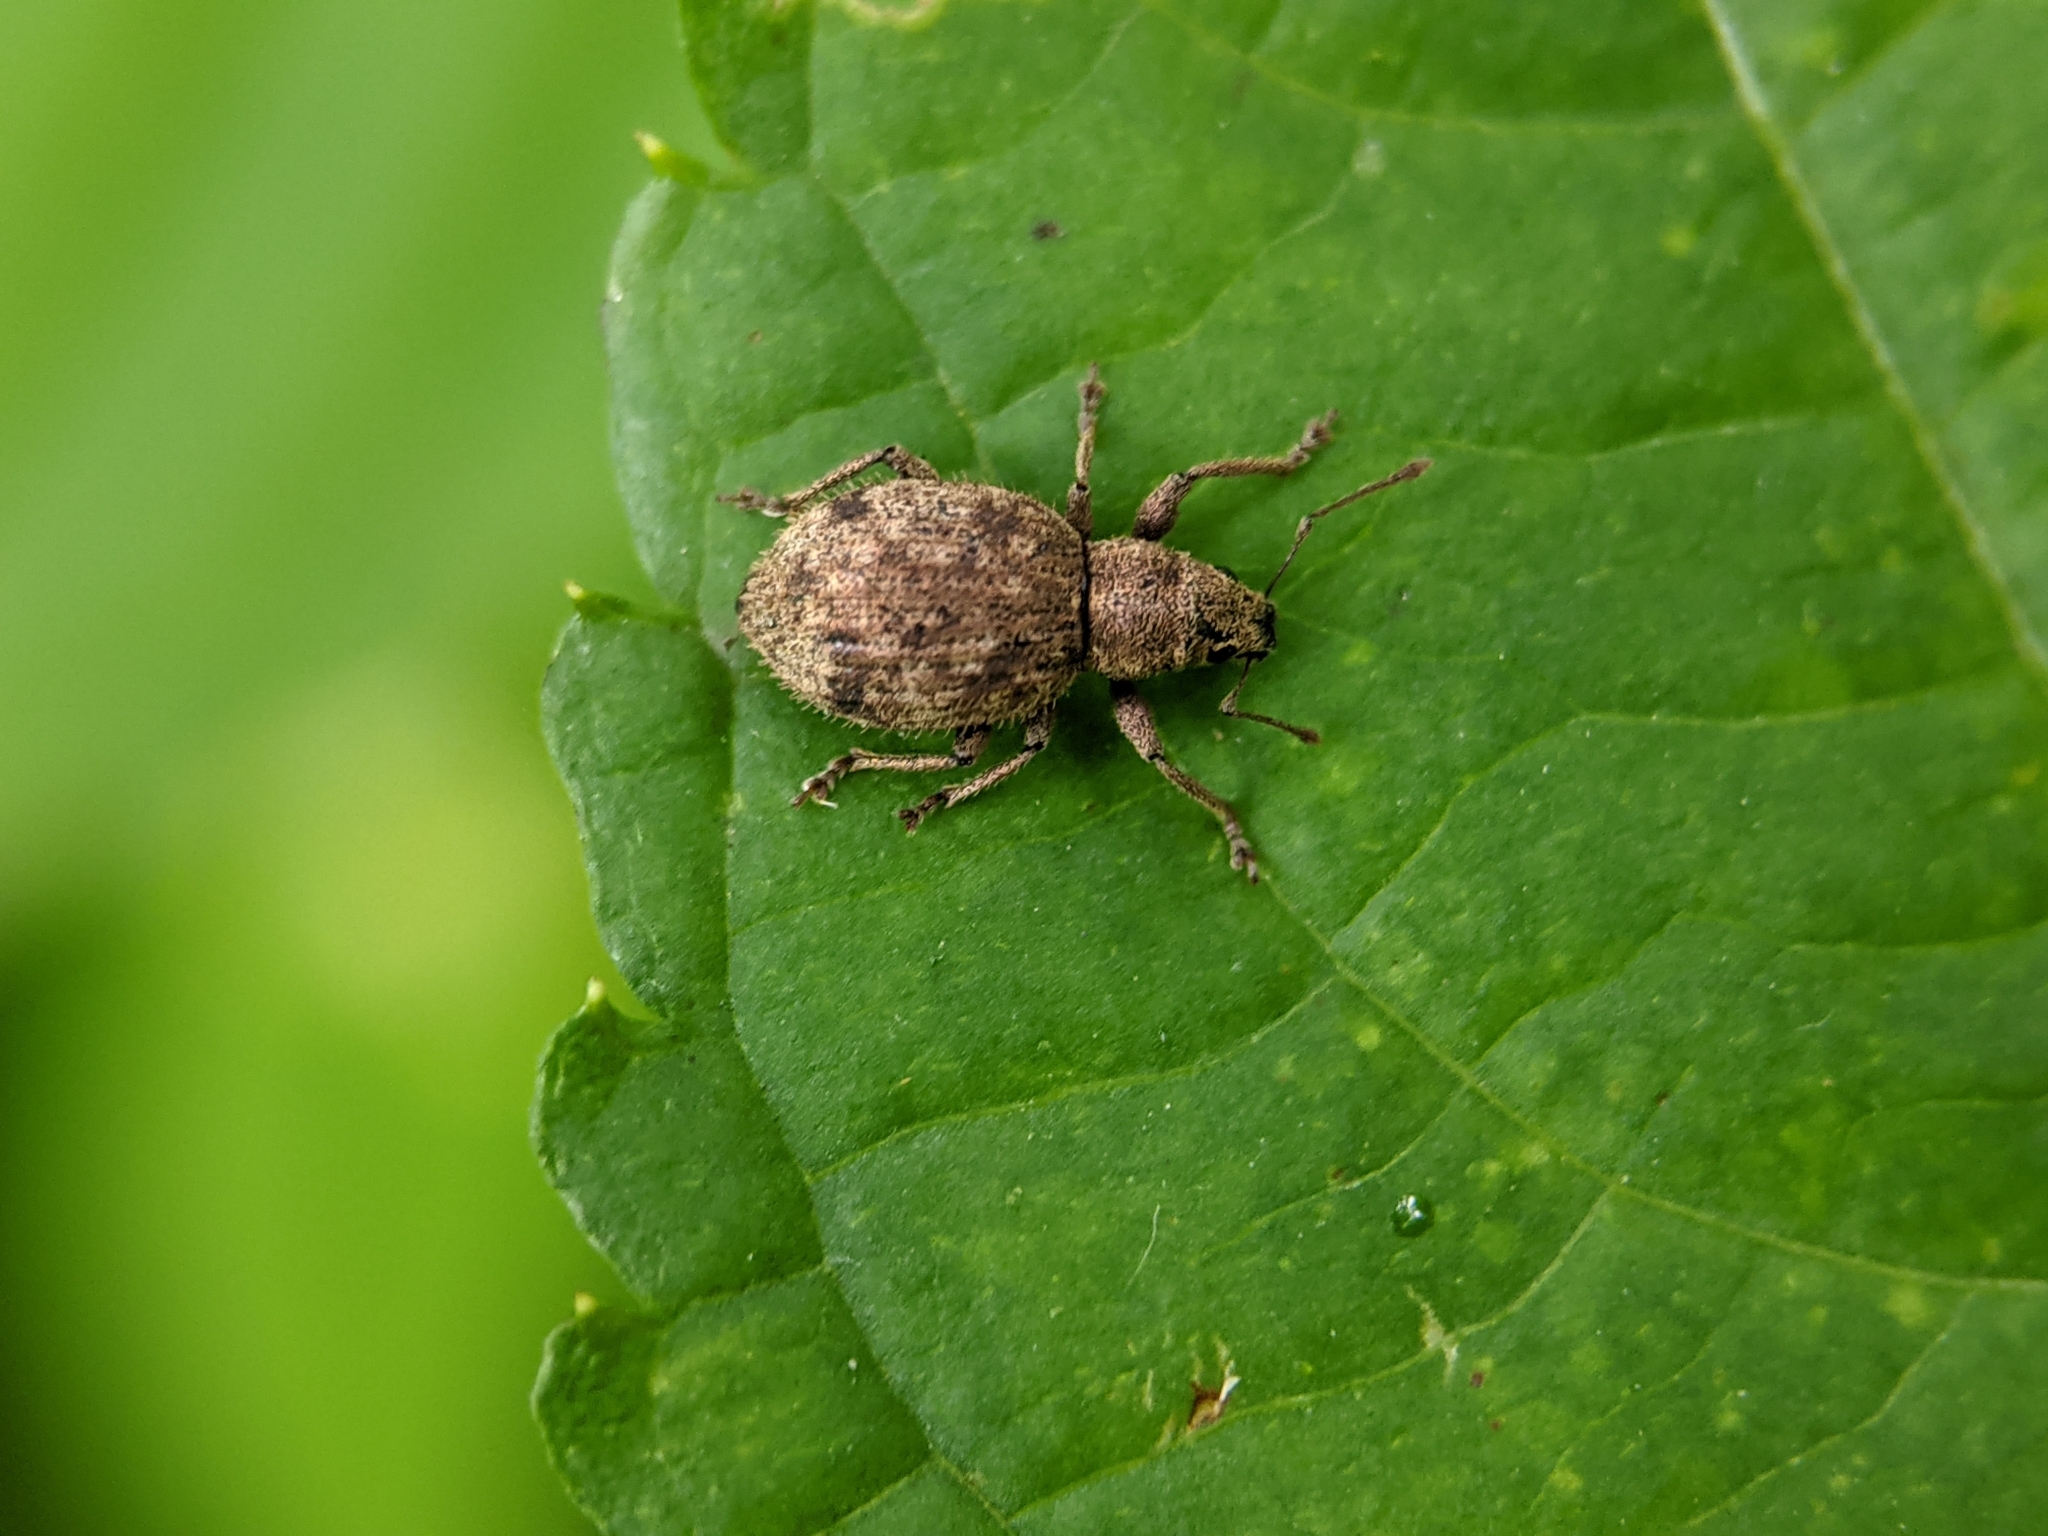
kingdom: Animalia
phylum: Arthropoda
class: Insecta
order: Coleoptera
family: Curculionidae
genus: Sciaphilus
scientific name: Sciaphilus asperatus
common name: Weevil
